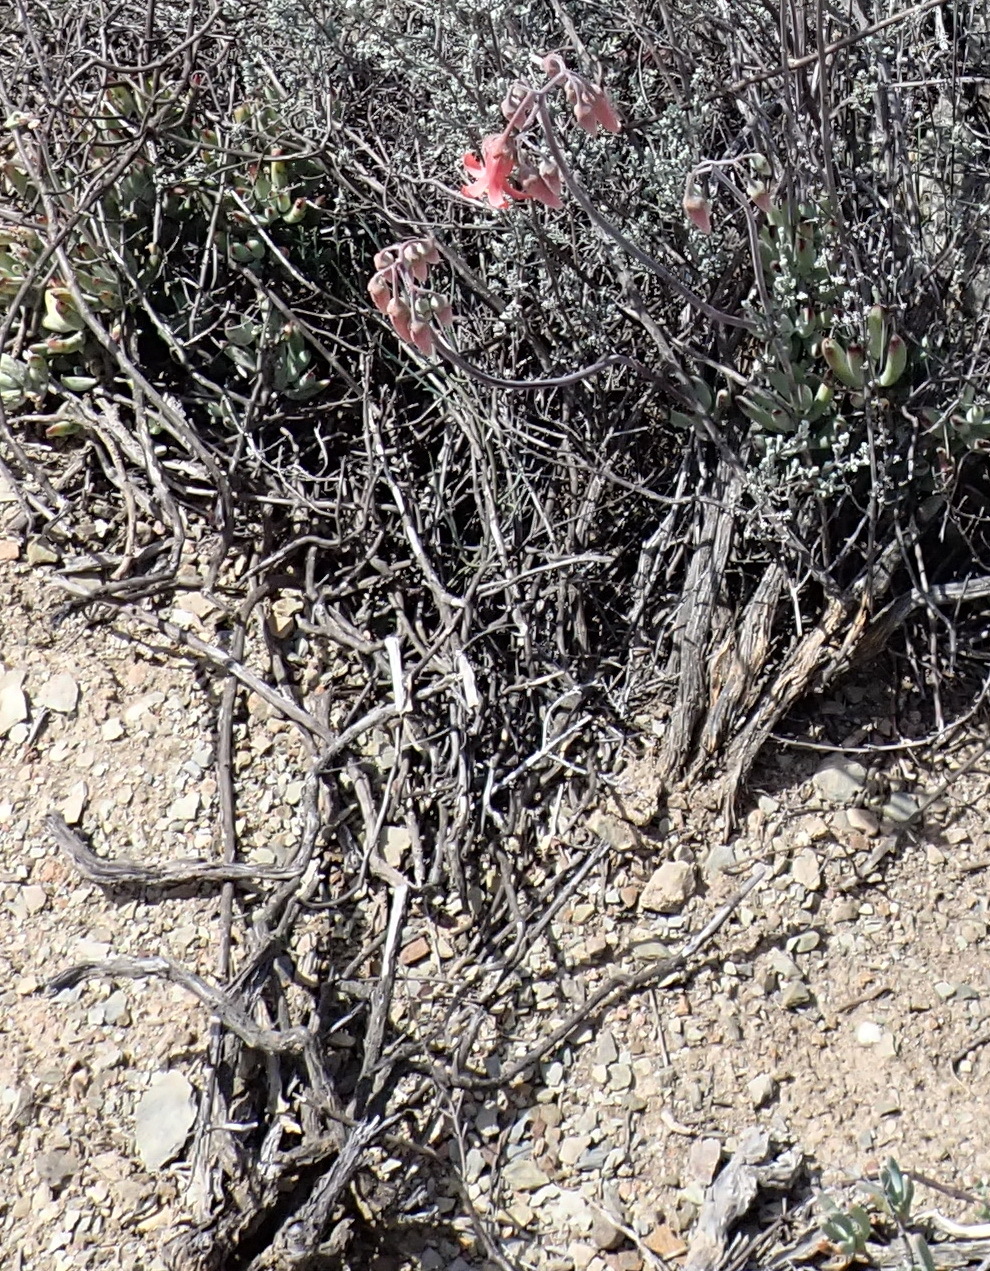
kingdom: Plantae
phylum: Tracheophyta
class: Magnoliopsida
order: Saxifragales
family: Crassulaceae
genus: Cotyledon
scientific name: Cotyledon orbiculata
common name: Pig's ear
